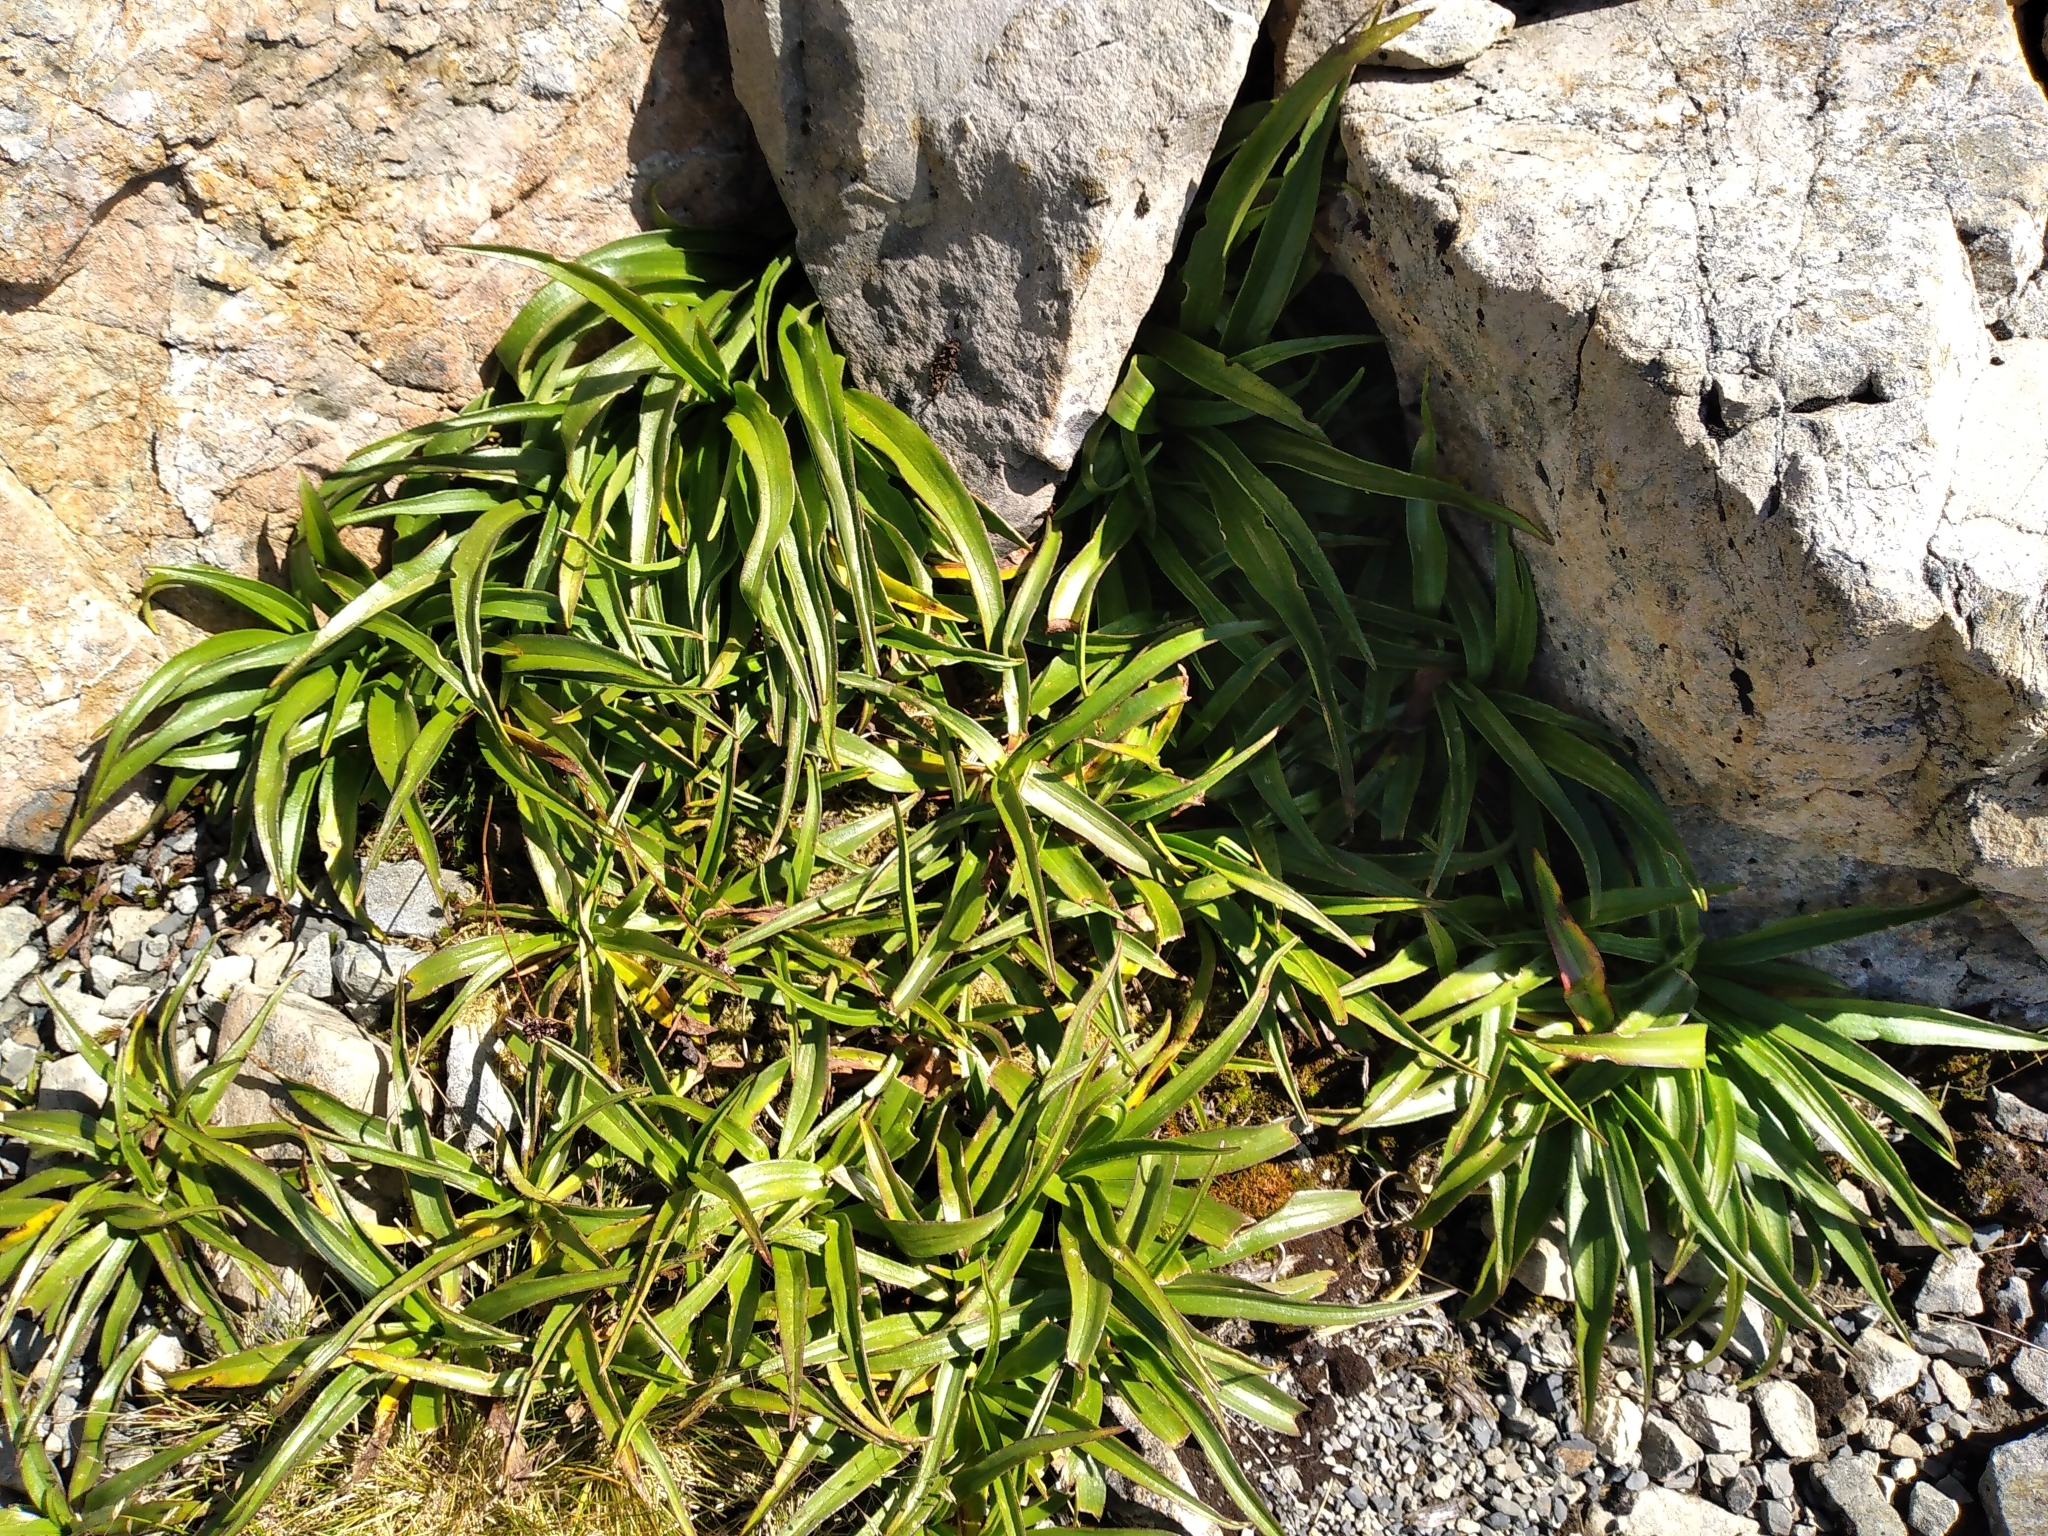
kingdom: Plantae
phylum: Tracheophyta
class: Magnoliopsida
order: Asterales
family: Asteraceae
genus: Dolichoglottis
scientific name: Dolichoglottis scorzoneroides
